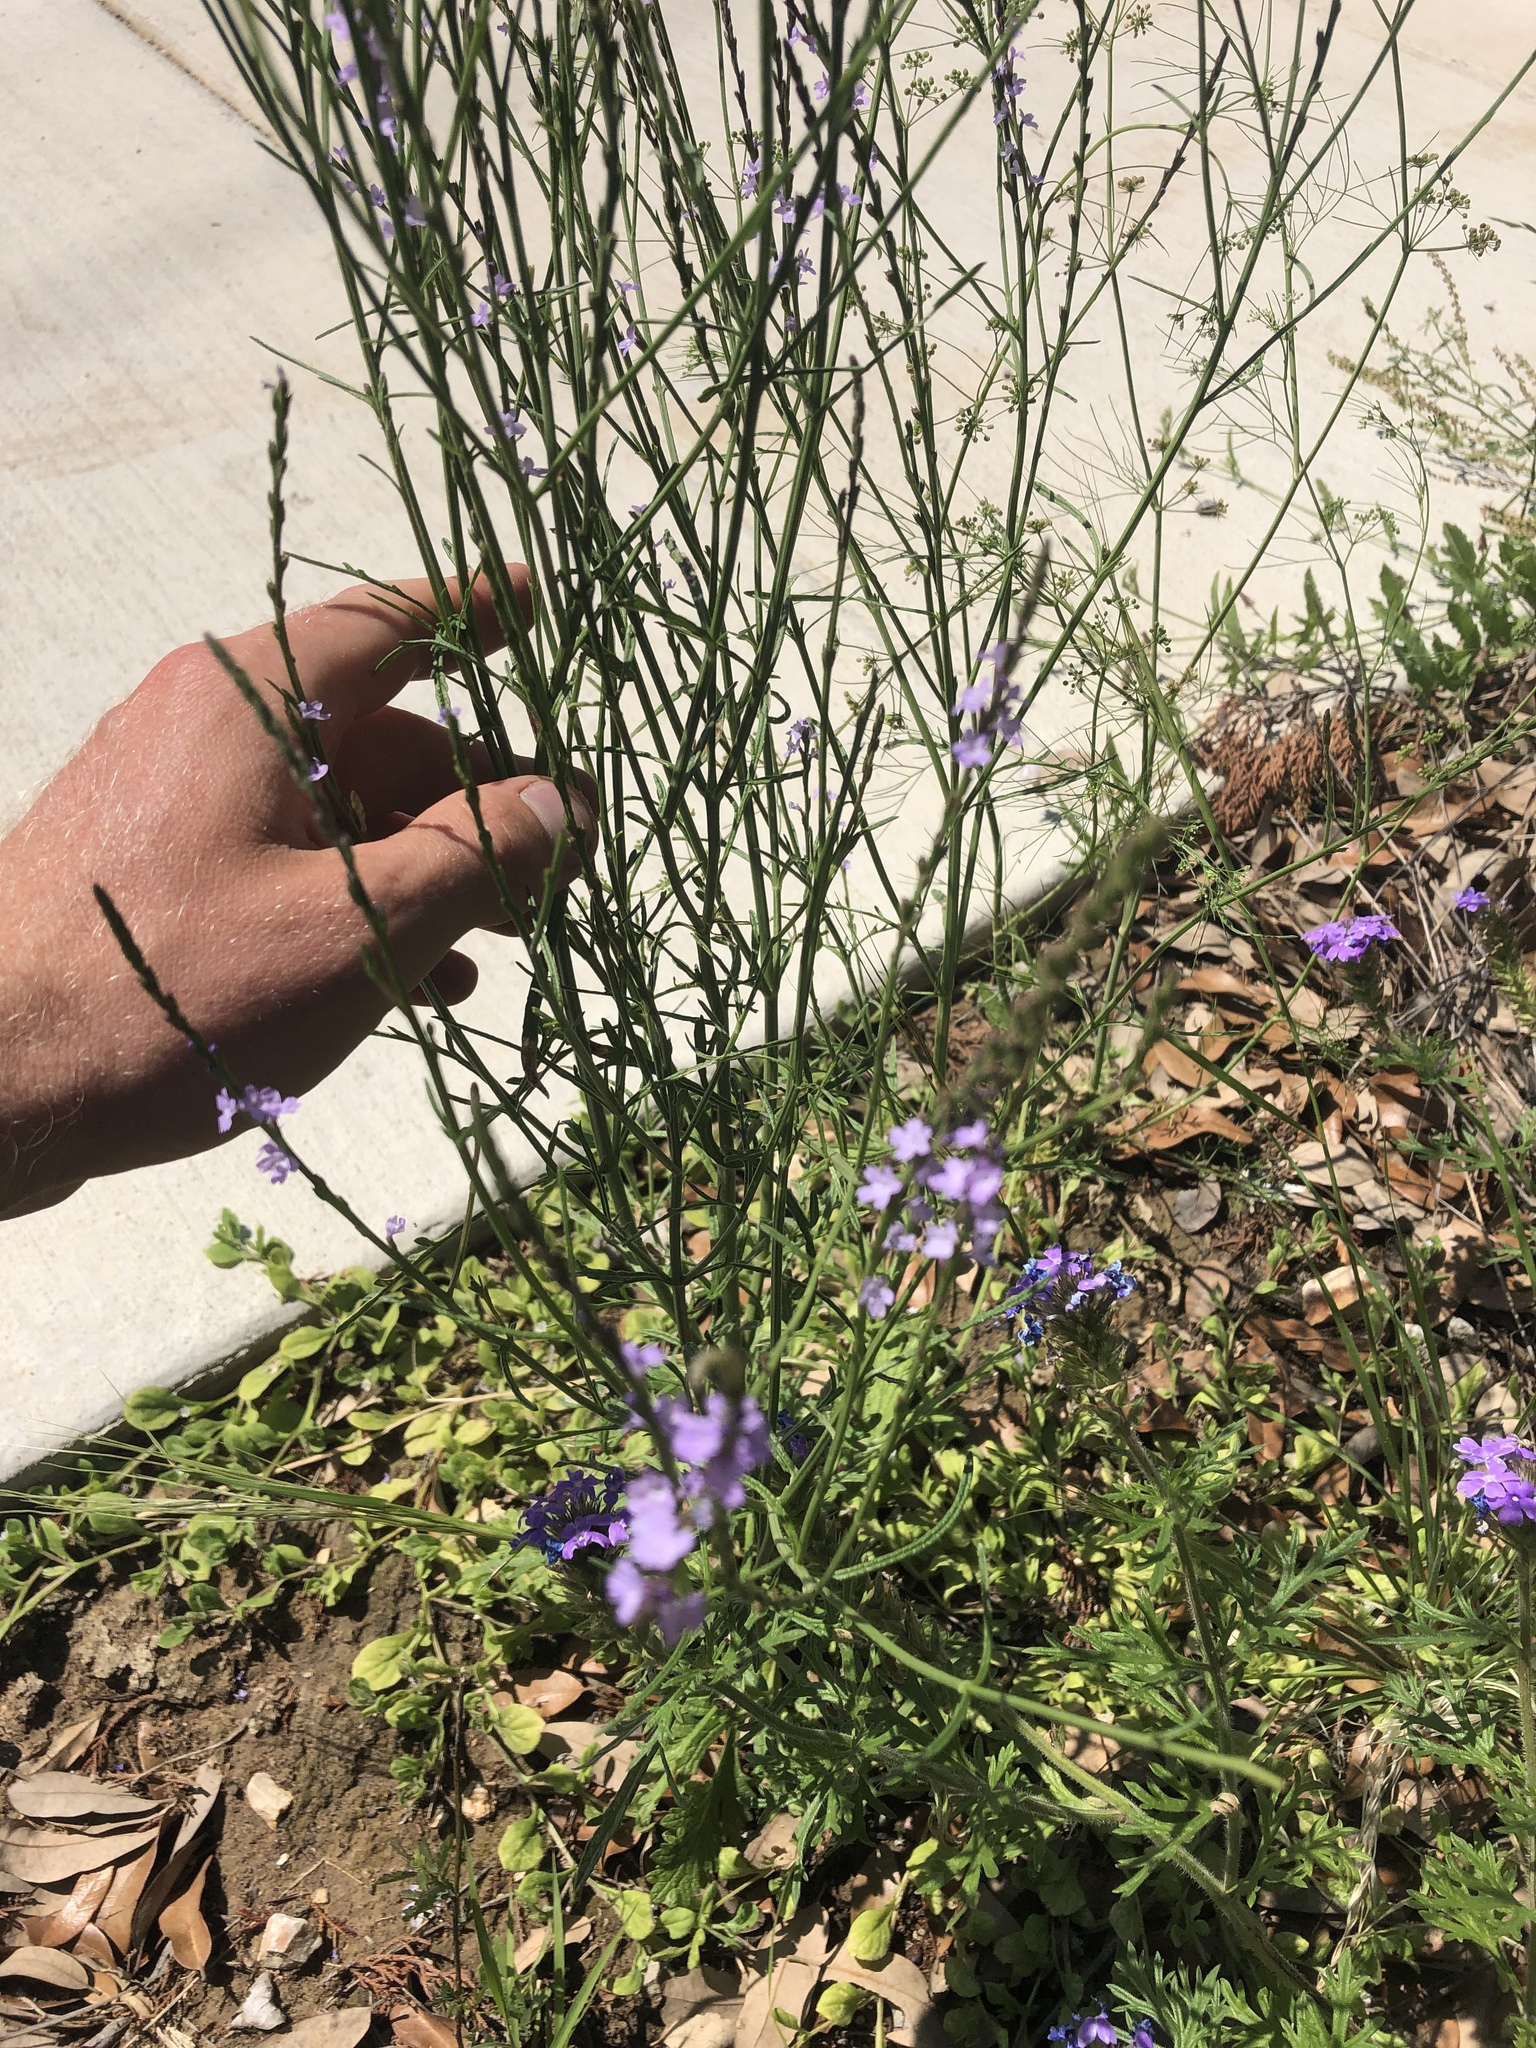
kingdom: Plantae
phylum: Tracheophyta
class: Magnoliopsida
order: Lamiales
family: Verbenaceae
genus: Verbena
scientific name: Verbena halei
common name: Texas vervain
